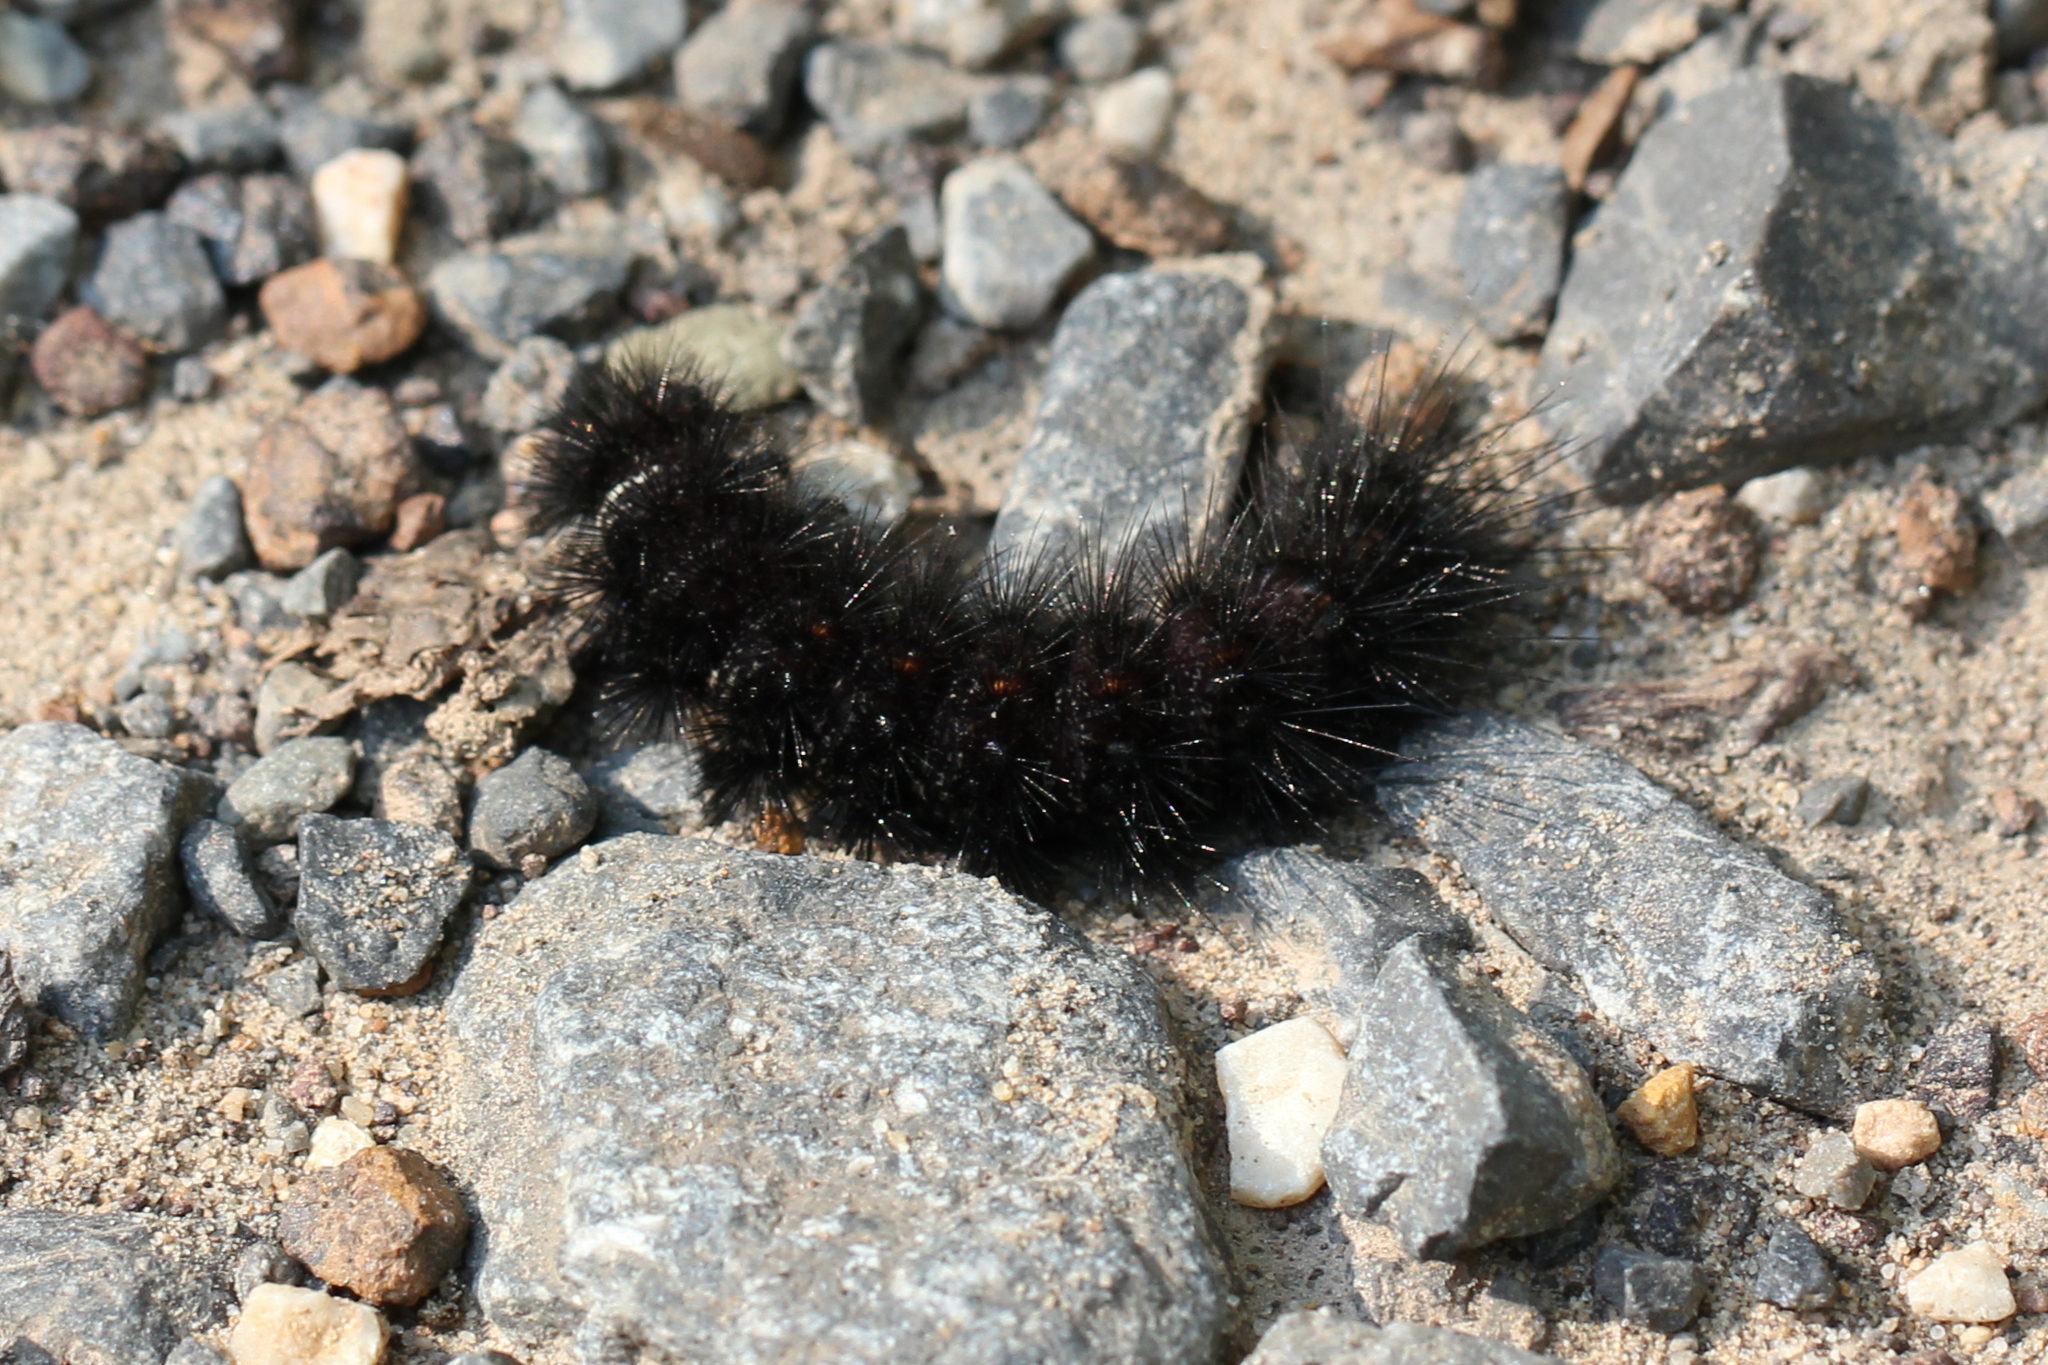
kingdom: Animalia
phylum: Arthropoda
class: Insecta
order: Lepidoptera
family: Erebidae
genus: Spilosoma
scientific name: Spilosoma congrua
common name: Agreeable tiger moth
